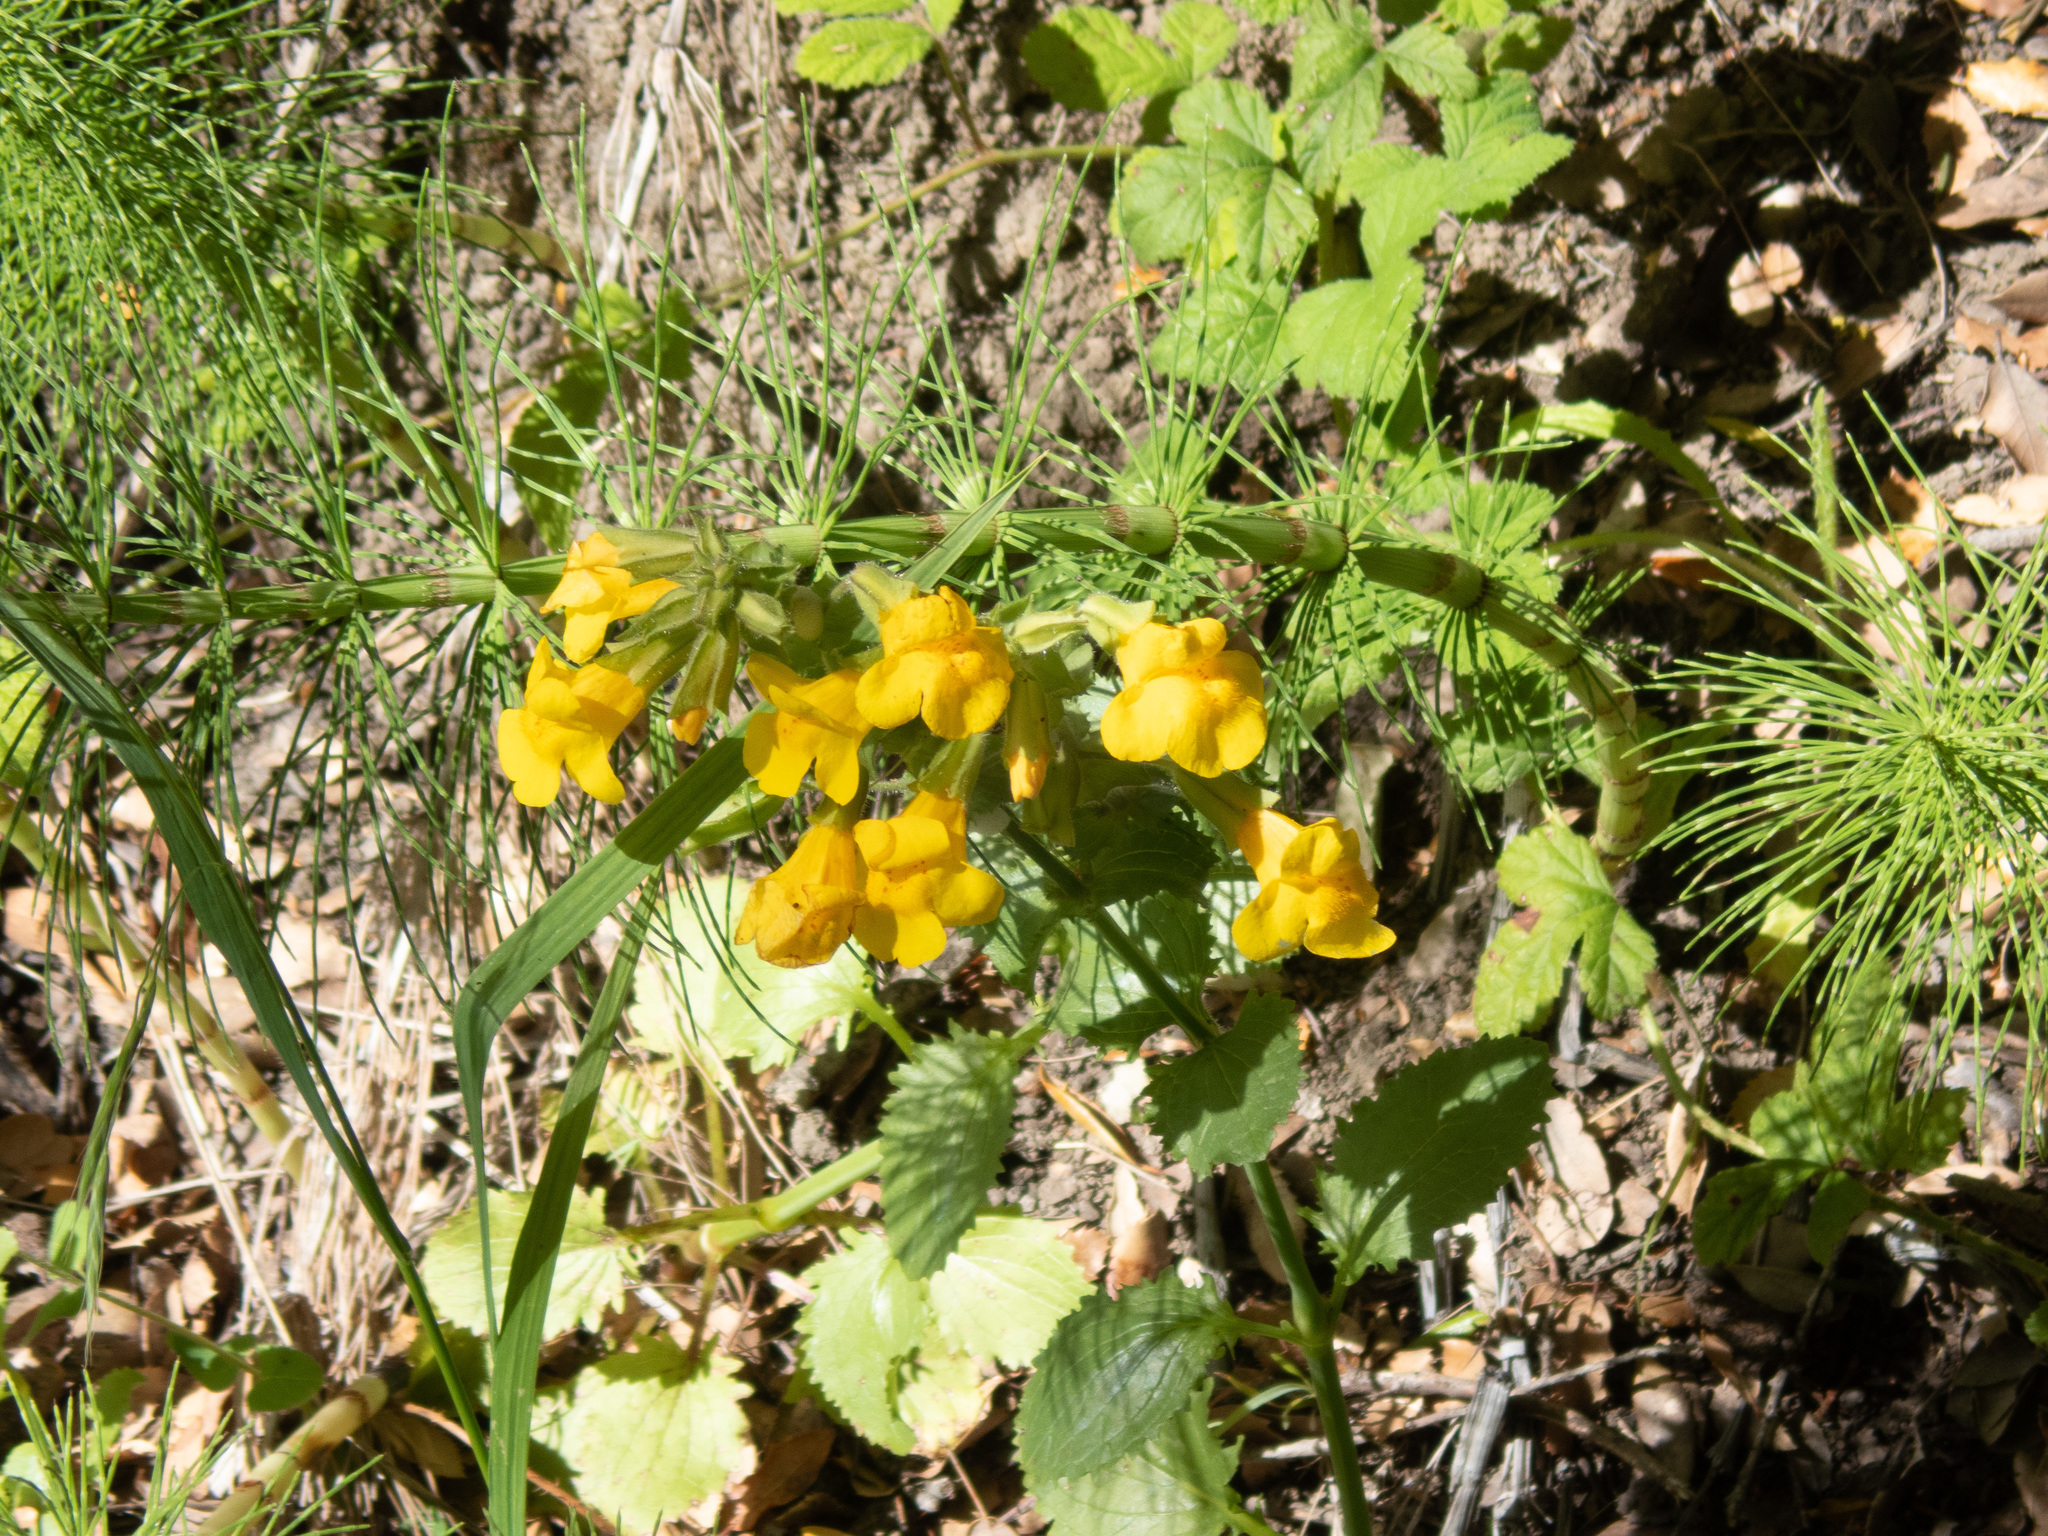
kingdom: Plantae
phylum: Tracheophyta
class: Magnoliopsida
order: Lamiales
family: Phrymaceae
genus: Erythranthe
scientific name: Erythranthe guttata
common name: Monkeyflower
